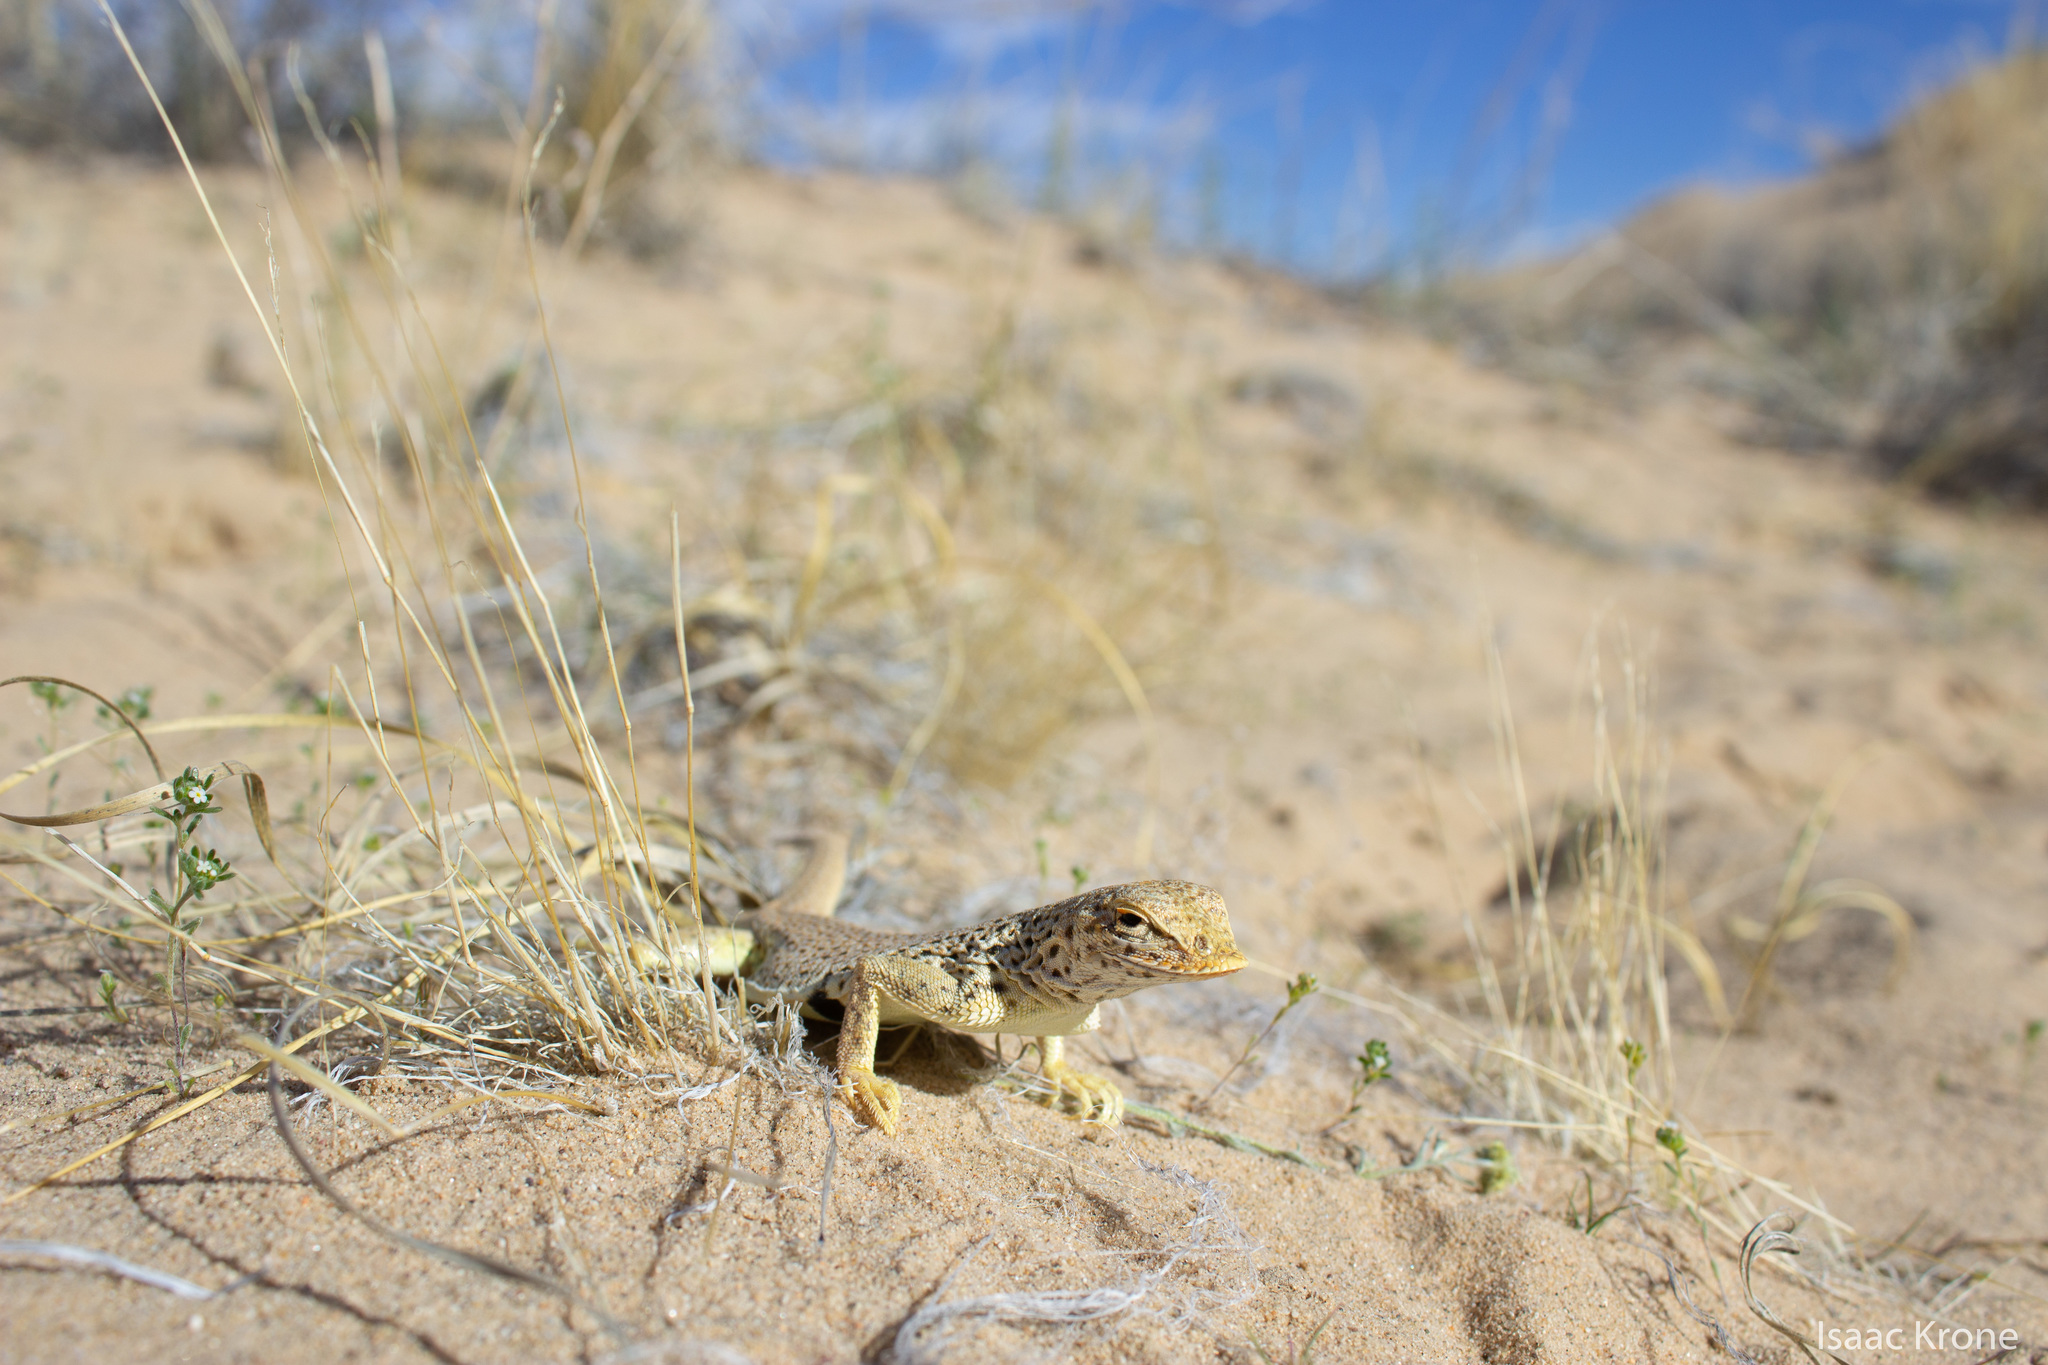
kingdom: Animalia
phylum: Chordata
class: Squamata
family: Phrynosomatidae
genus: Uma
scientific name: Uma scoparia
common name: Mojave fringe-toed lizard
